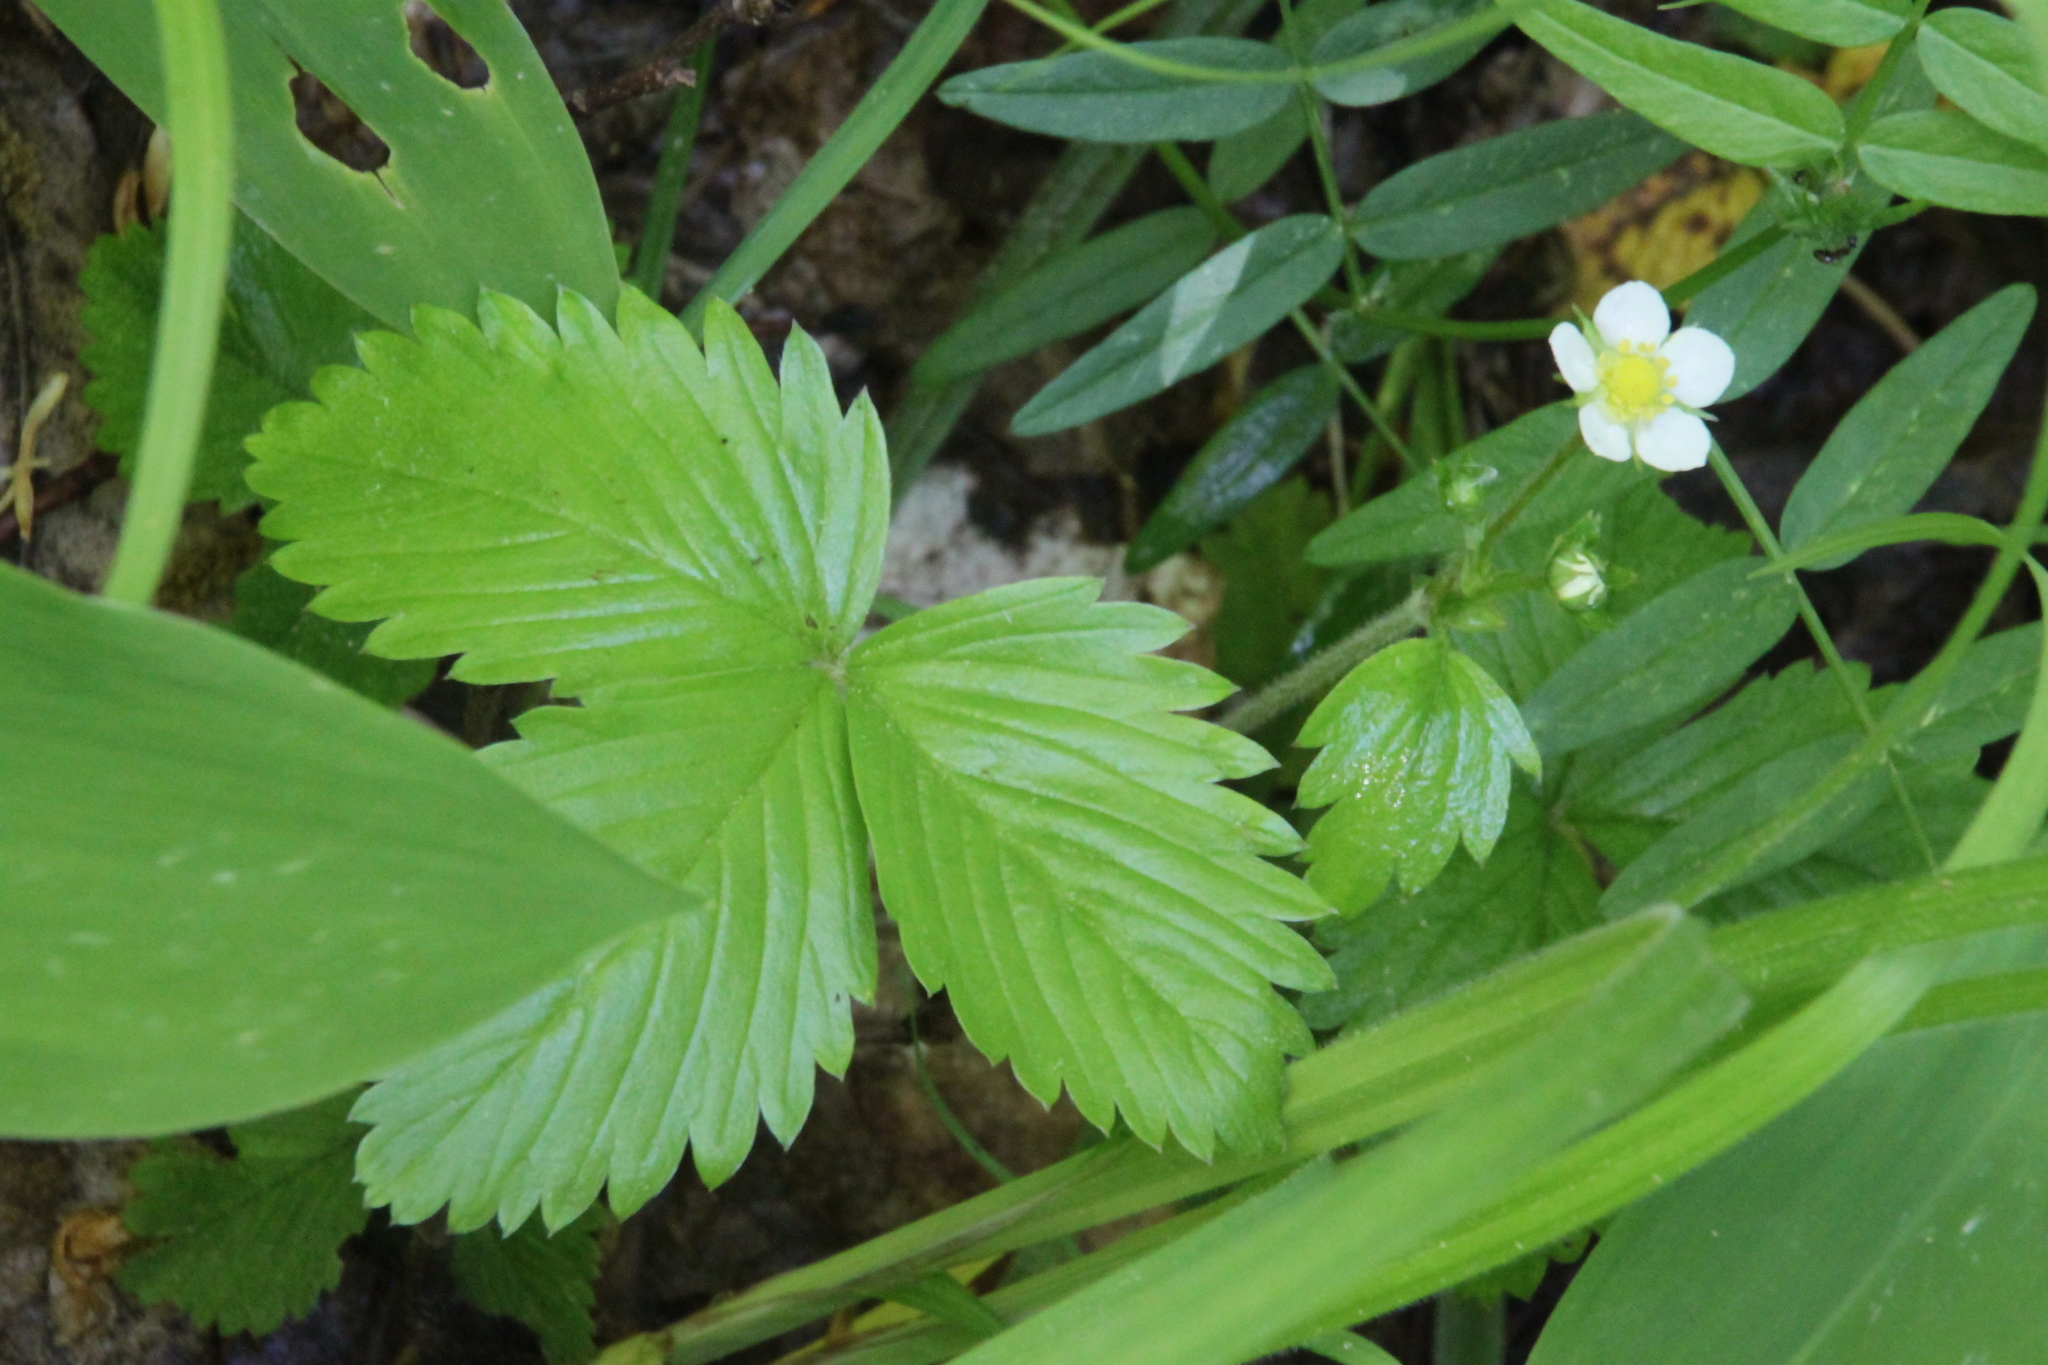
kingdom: Plantae
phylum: Tracheophyta
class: Magnoliopsida
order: Rosales
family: Rosaceae
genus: Fragaria
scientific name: Fragaria vesca
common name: Wild strawberry
